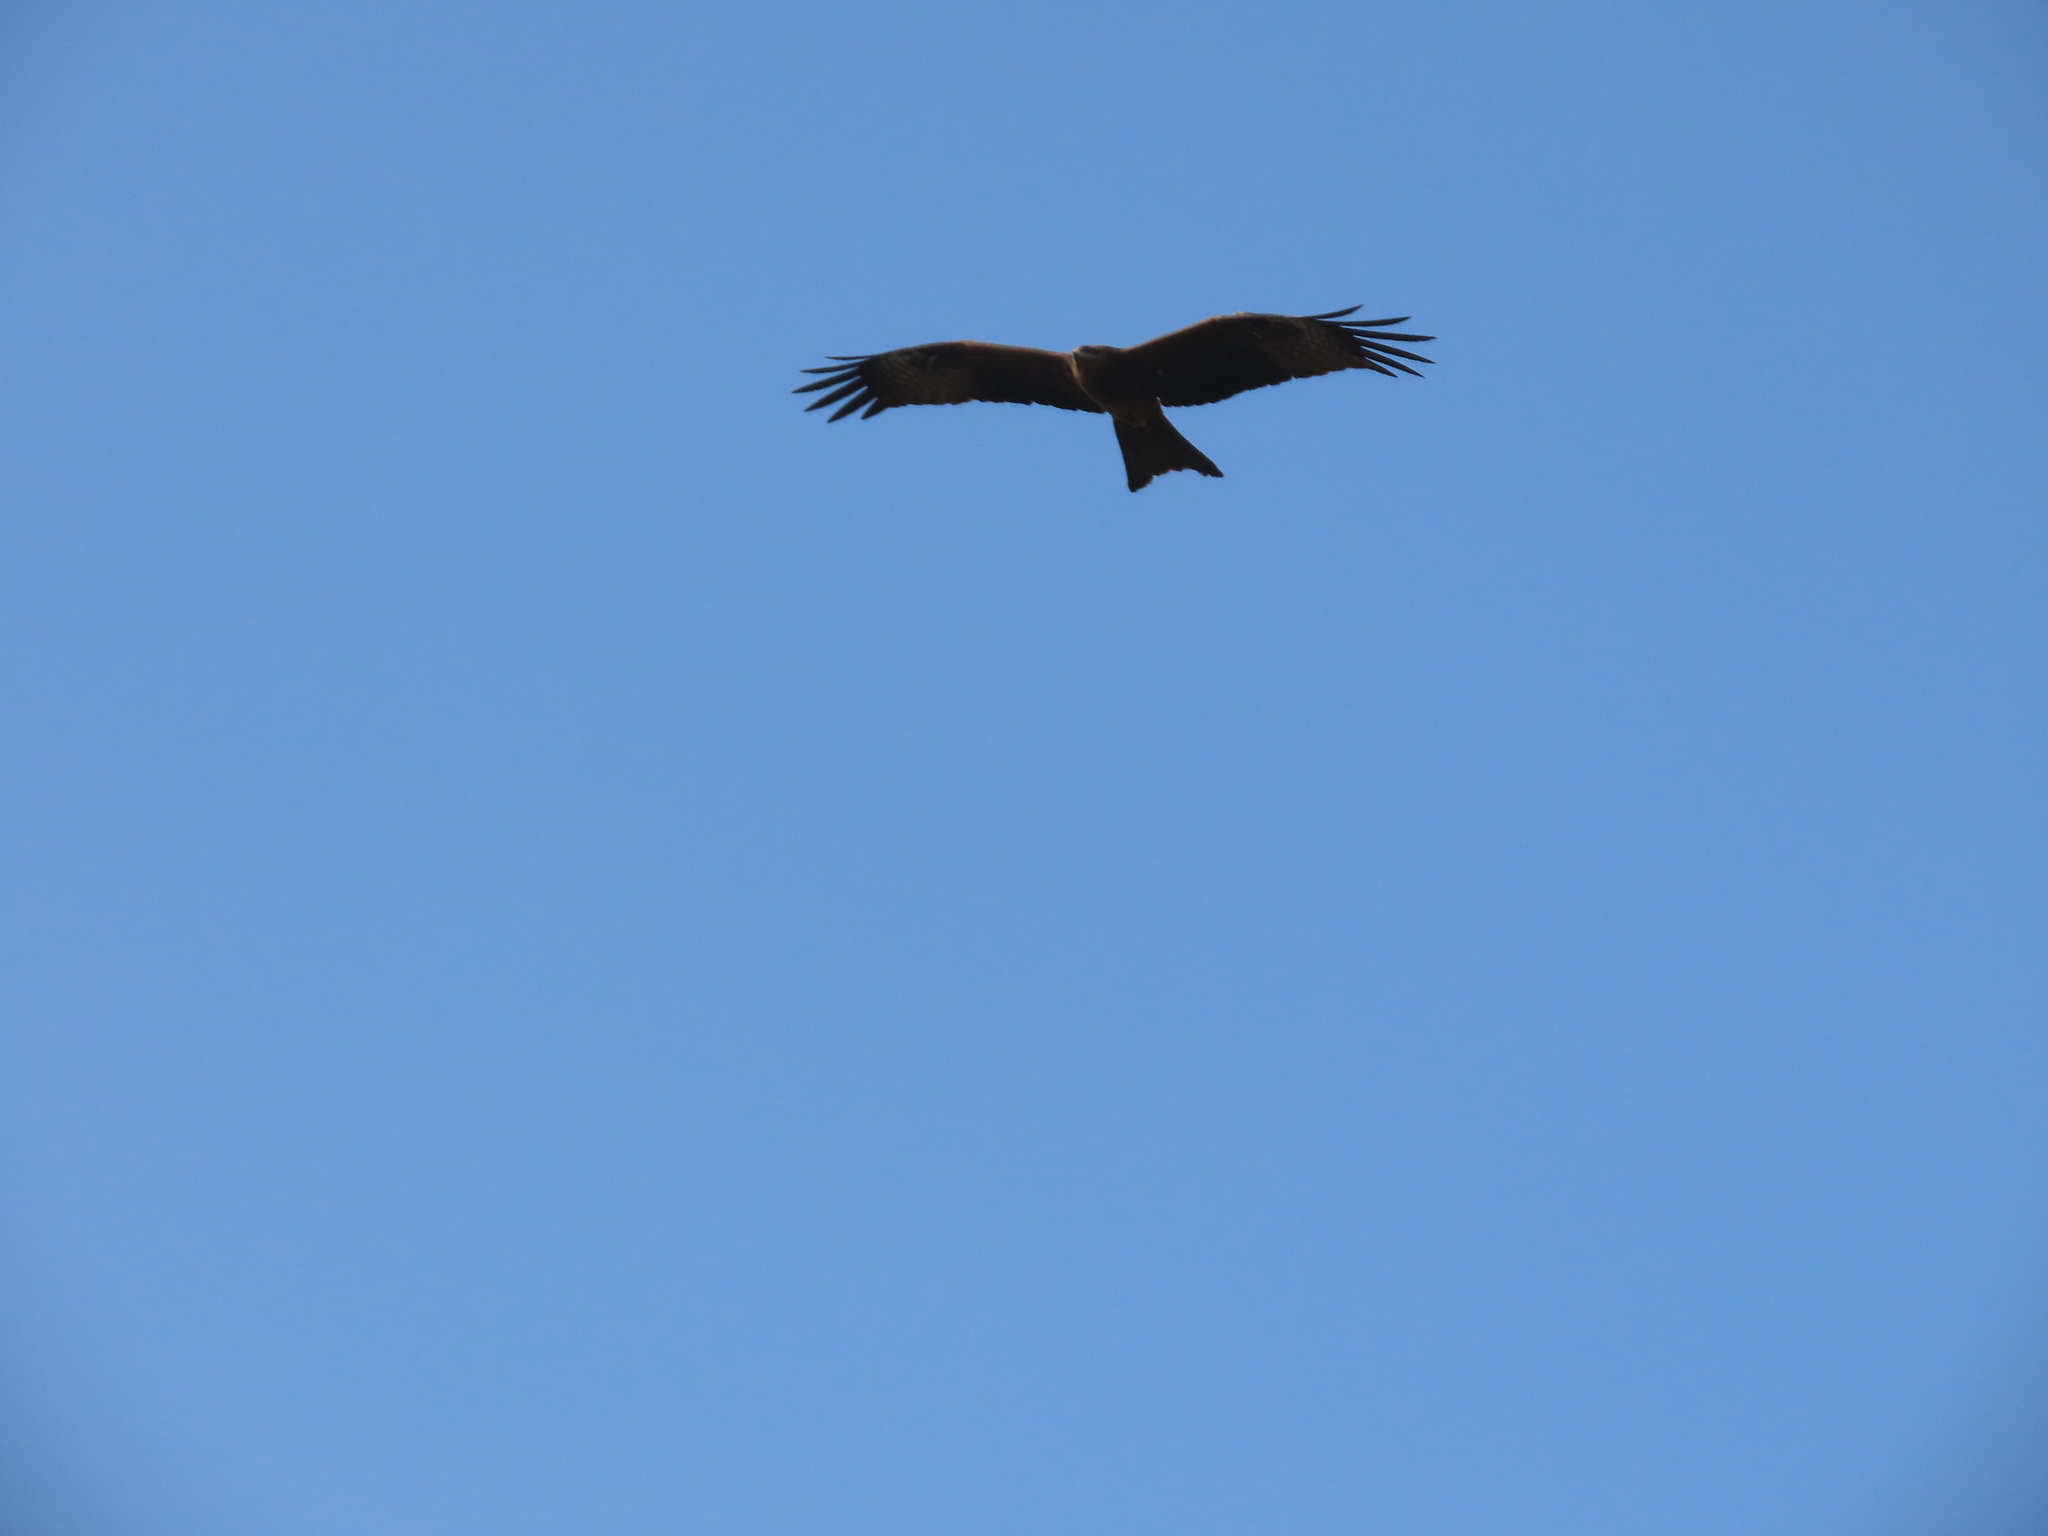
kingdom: Animalia
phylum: Chordata
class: Aves
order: Accipitriformes
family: Accipitridae
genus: Milvus
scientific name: Milvus migrans
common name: Black kite
